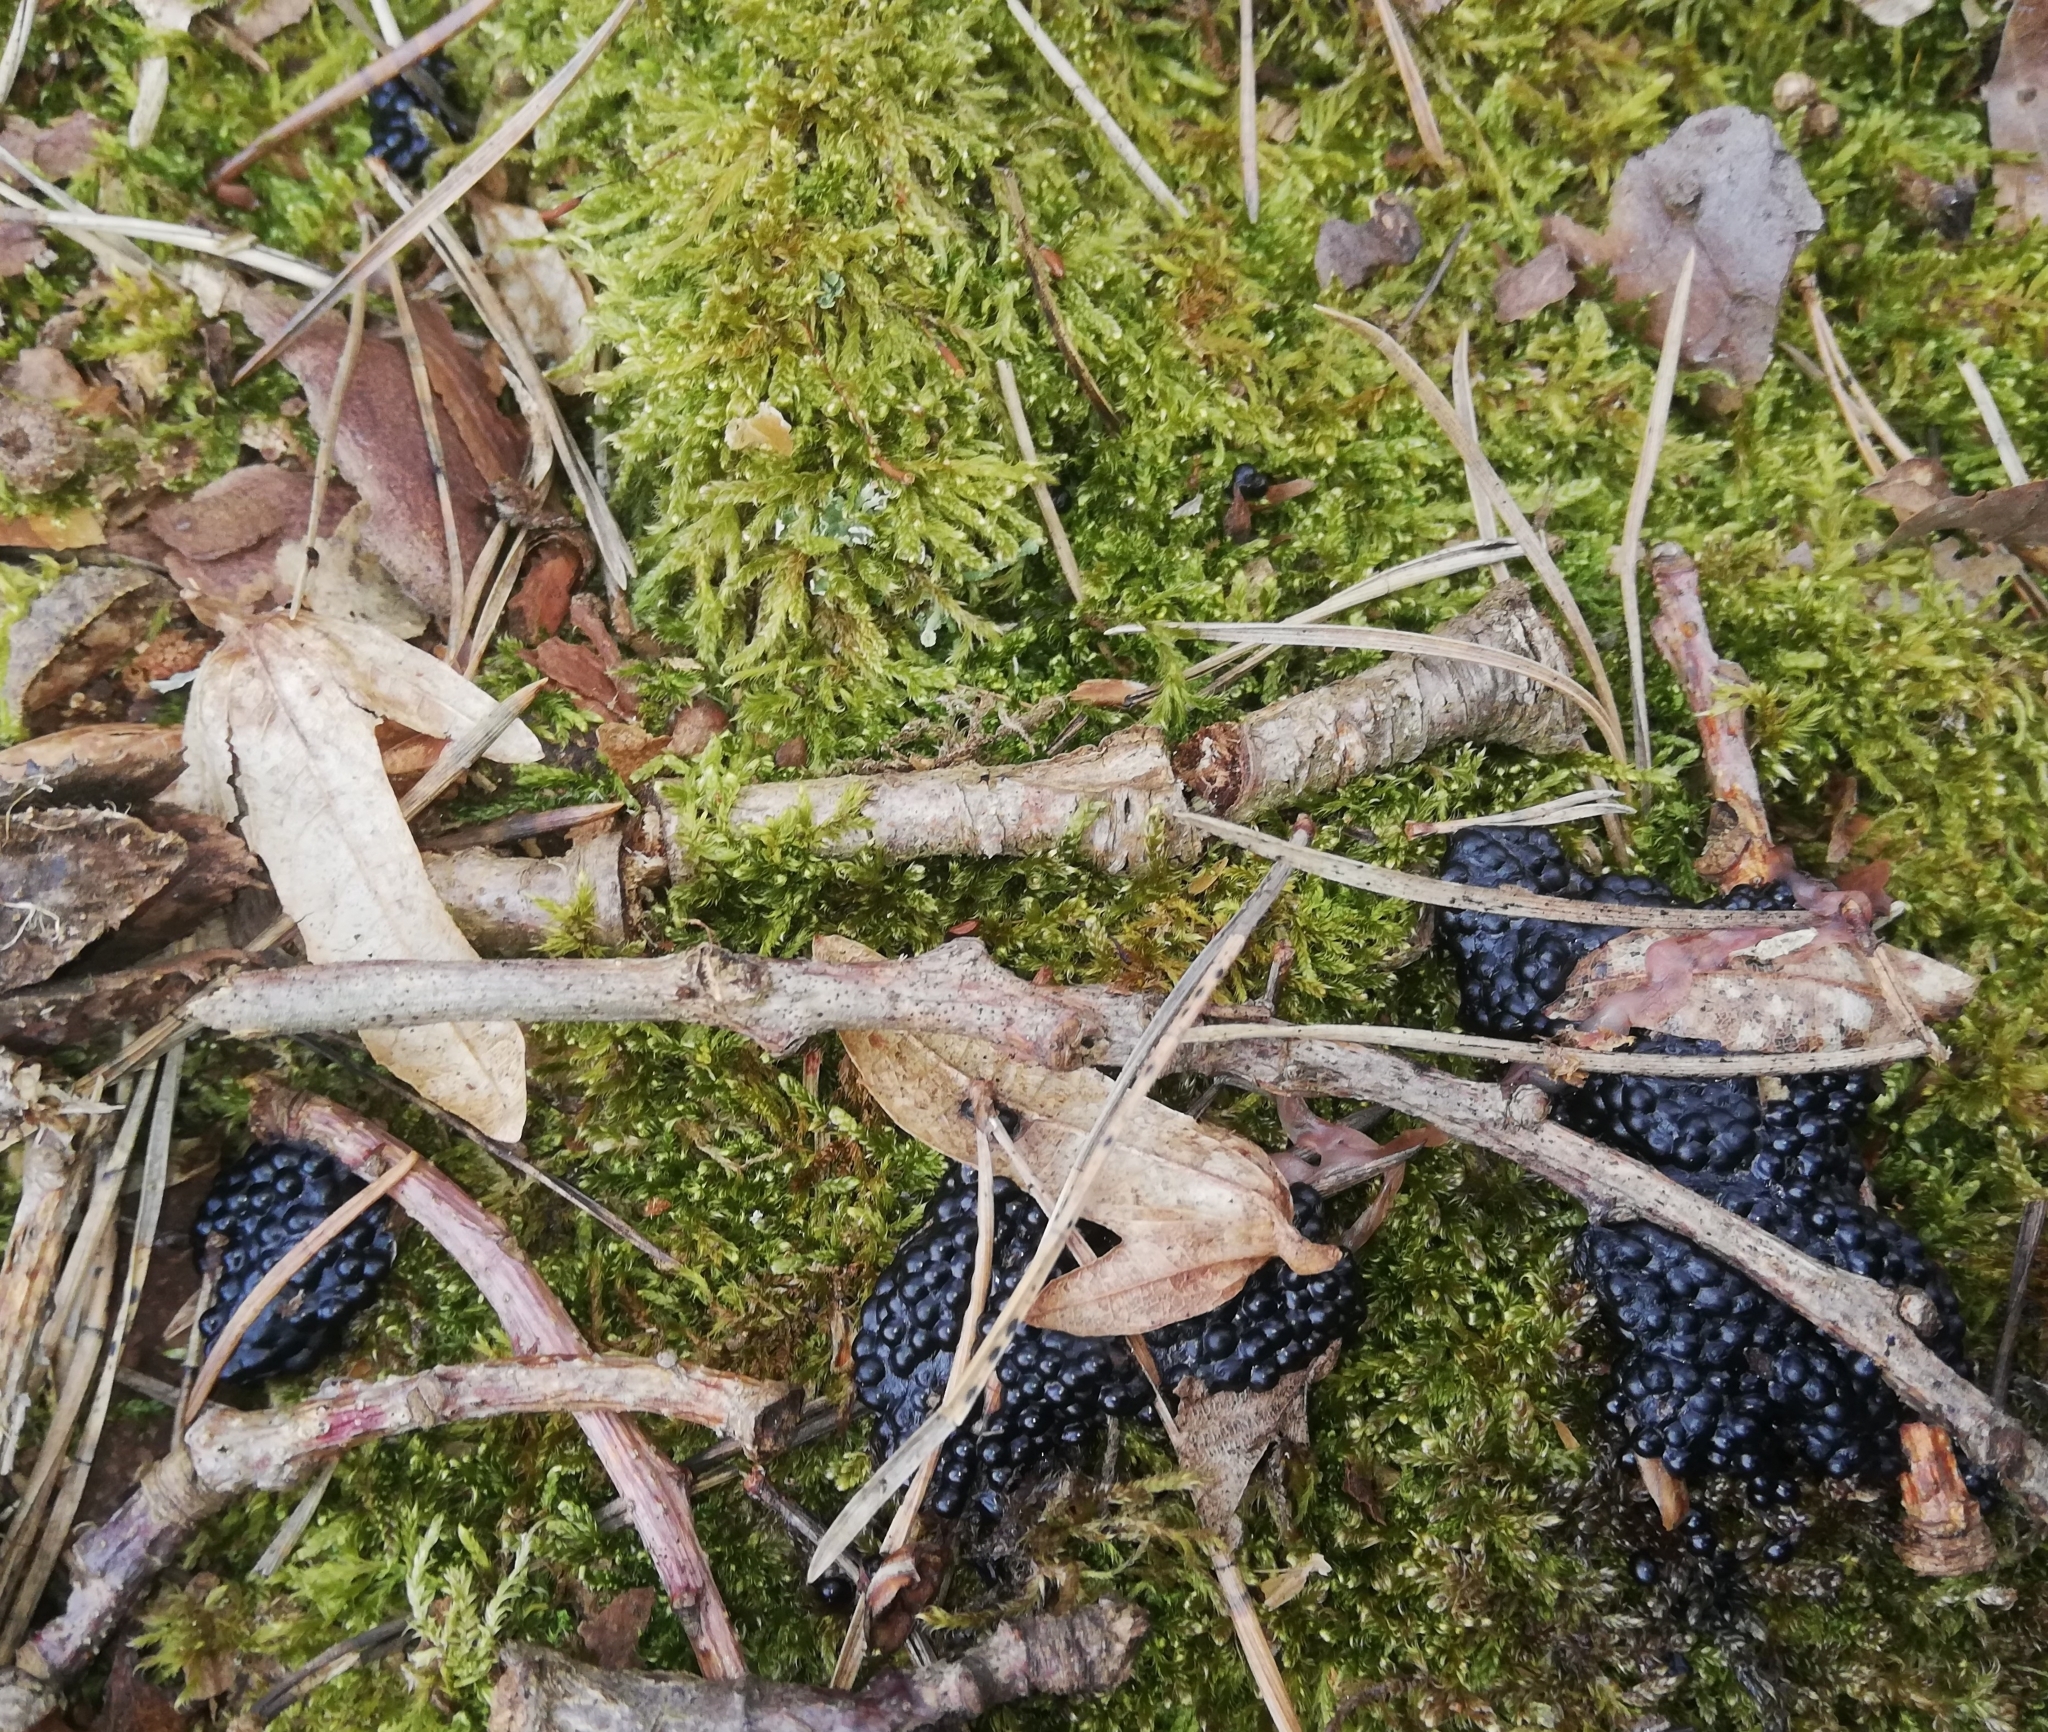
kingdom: Animalia
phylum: Chordata
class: Amphibia
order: Anura
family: Bufonidae
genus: Bufo
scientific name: Bufo bufo
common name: Common toad
